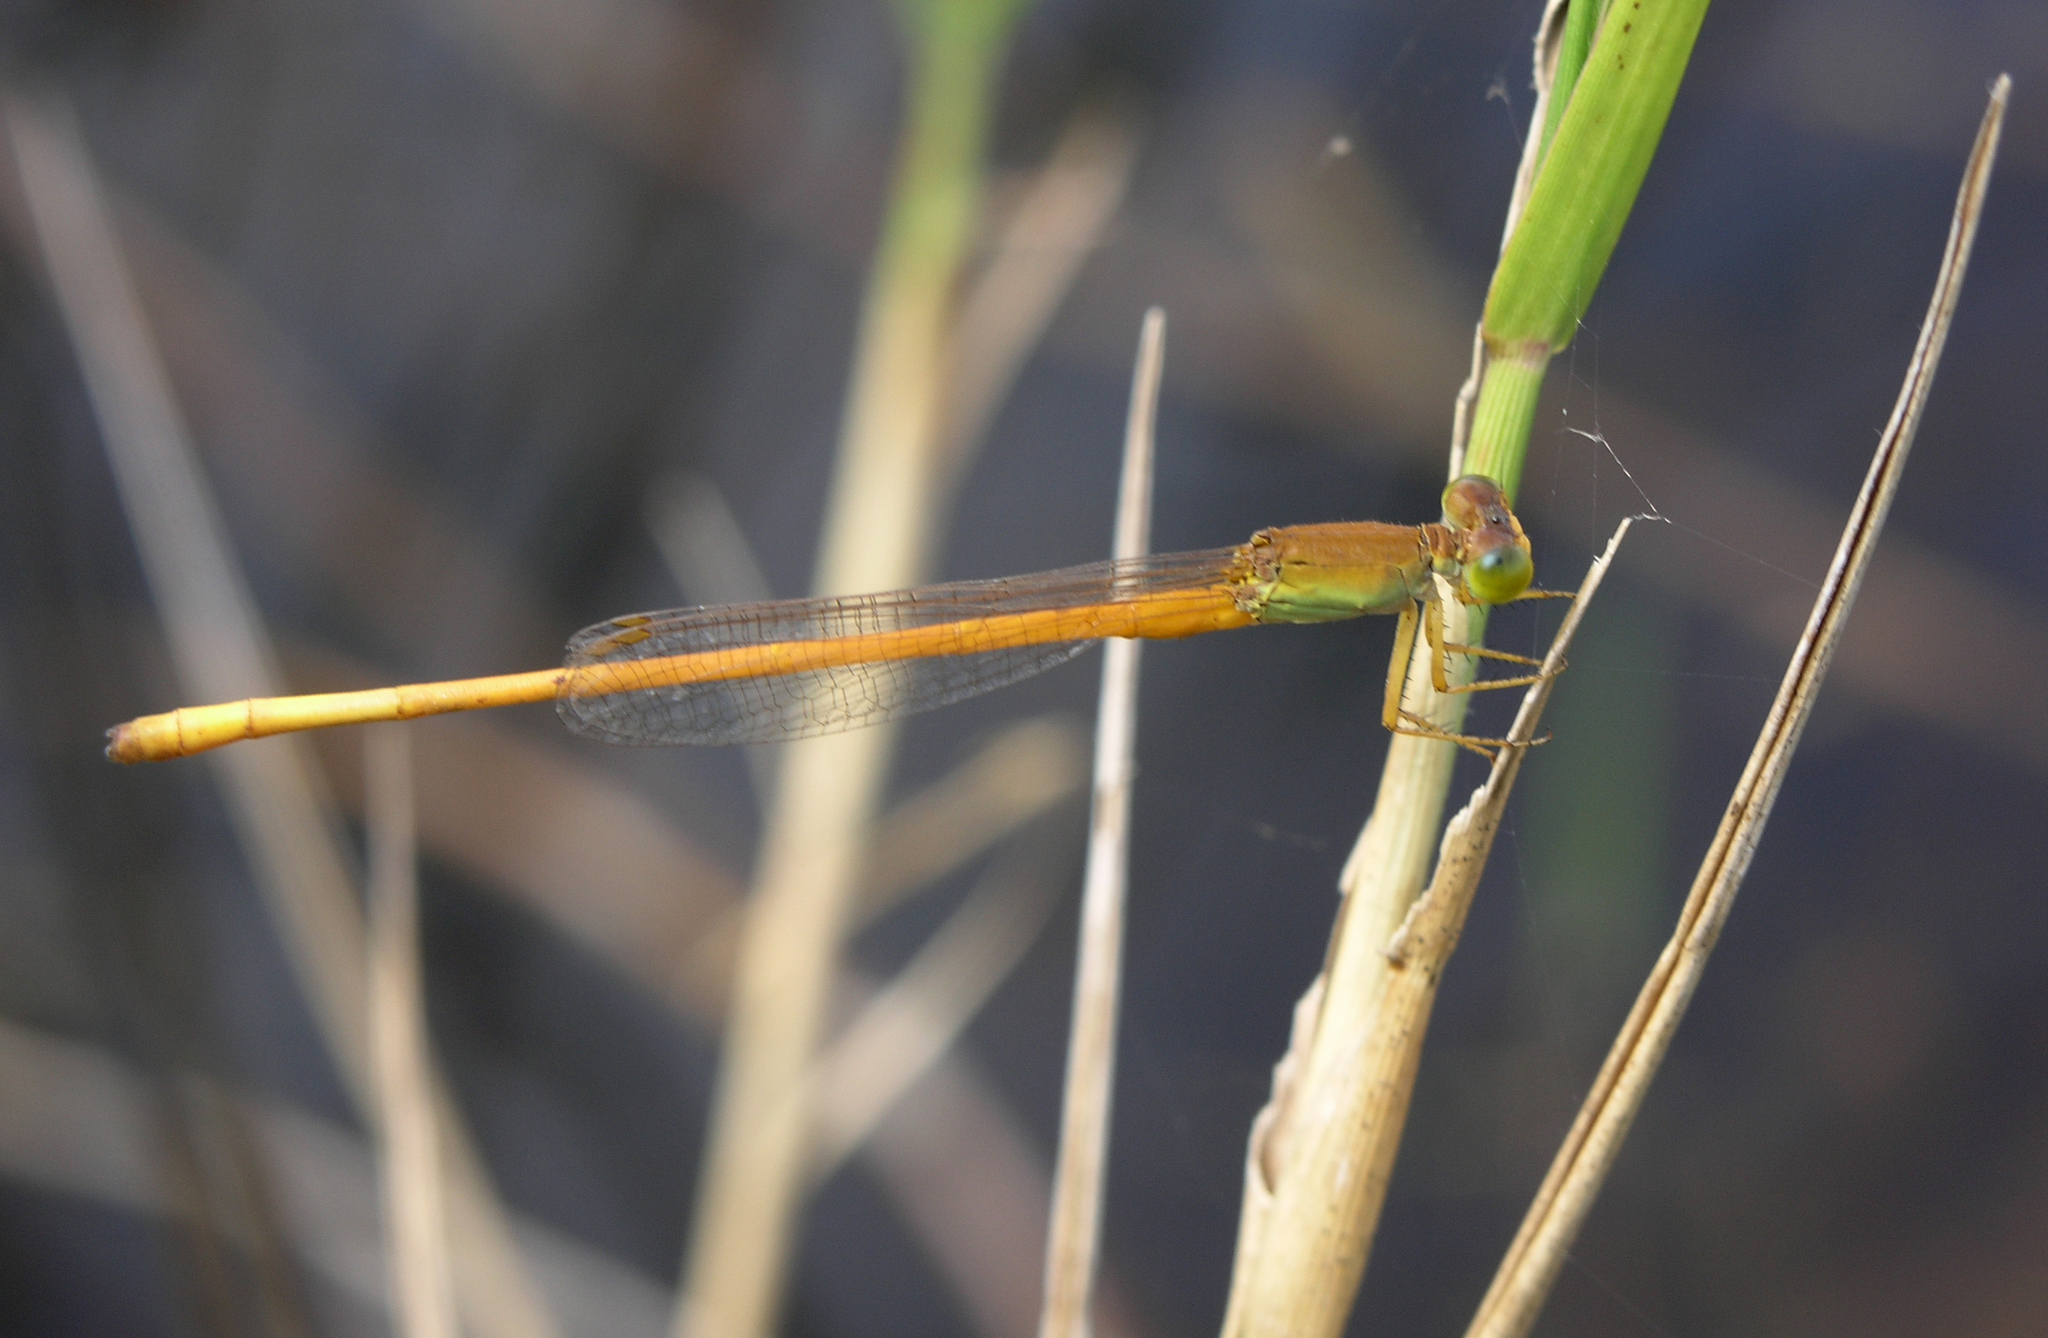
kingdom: Animalia
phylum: Arthropoda
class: Insecta
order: Odonata
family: Coenagrionidae
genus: Ceriagrion
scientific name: Ceriagrion calamineum
